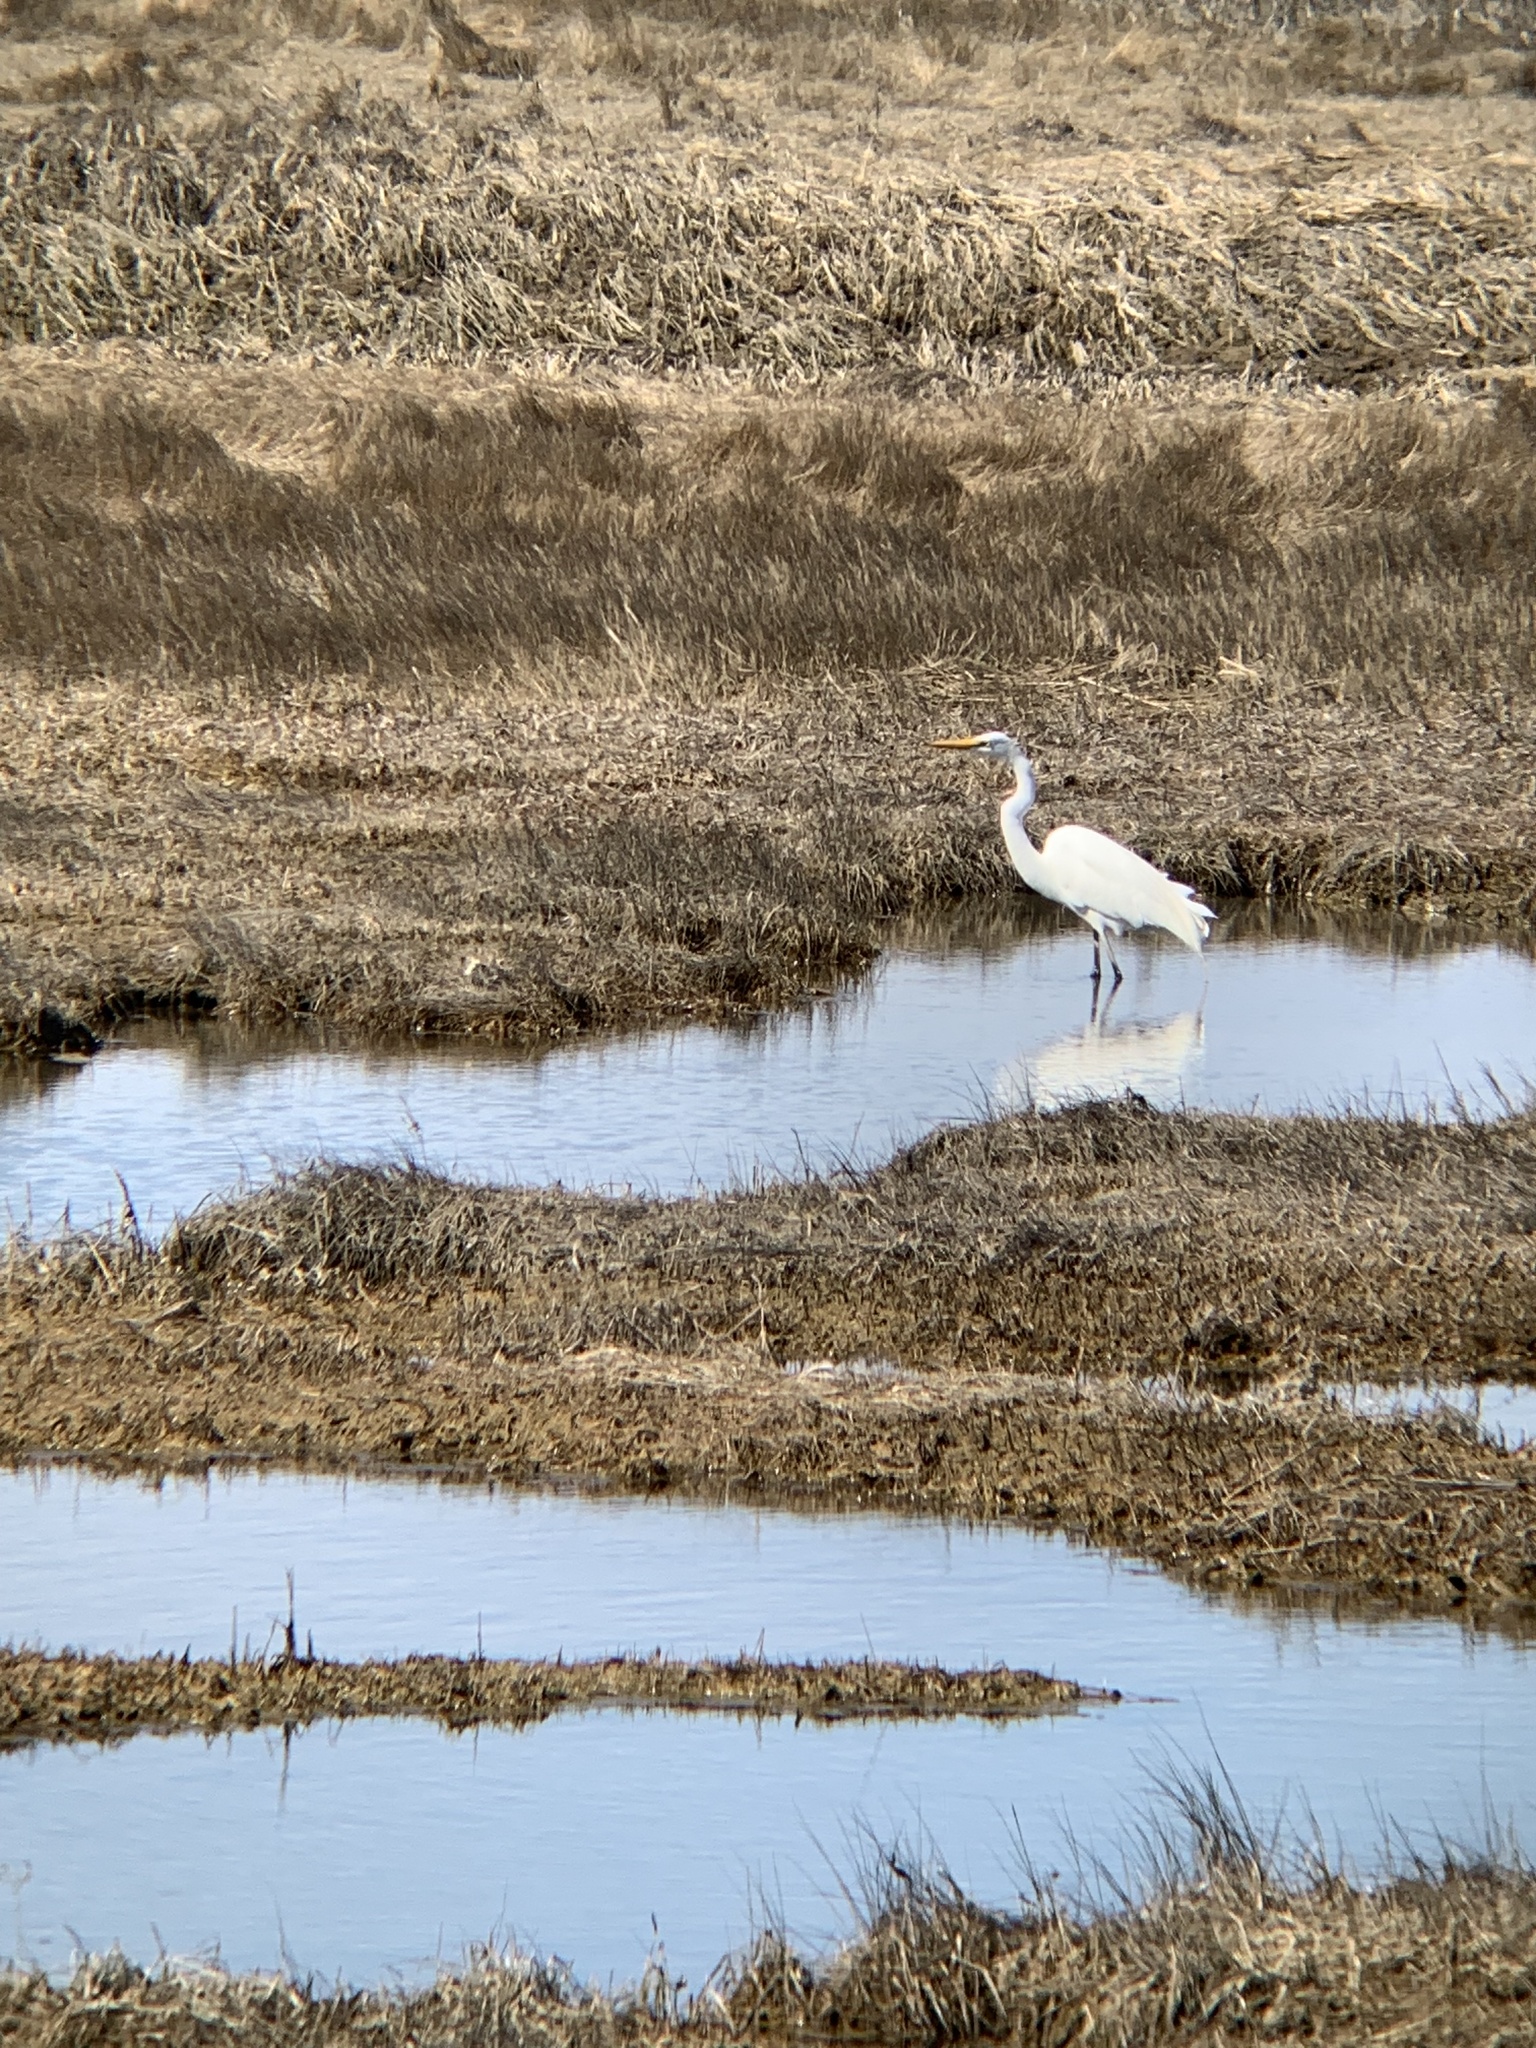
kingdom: Animalia
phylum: Chordata
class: Aves
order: Pelecaniformes
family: Ardeidae
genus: Ardea
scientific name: Ardea alba
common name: Great egret
